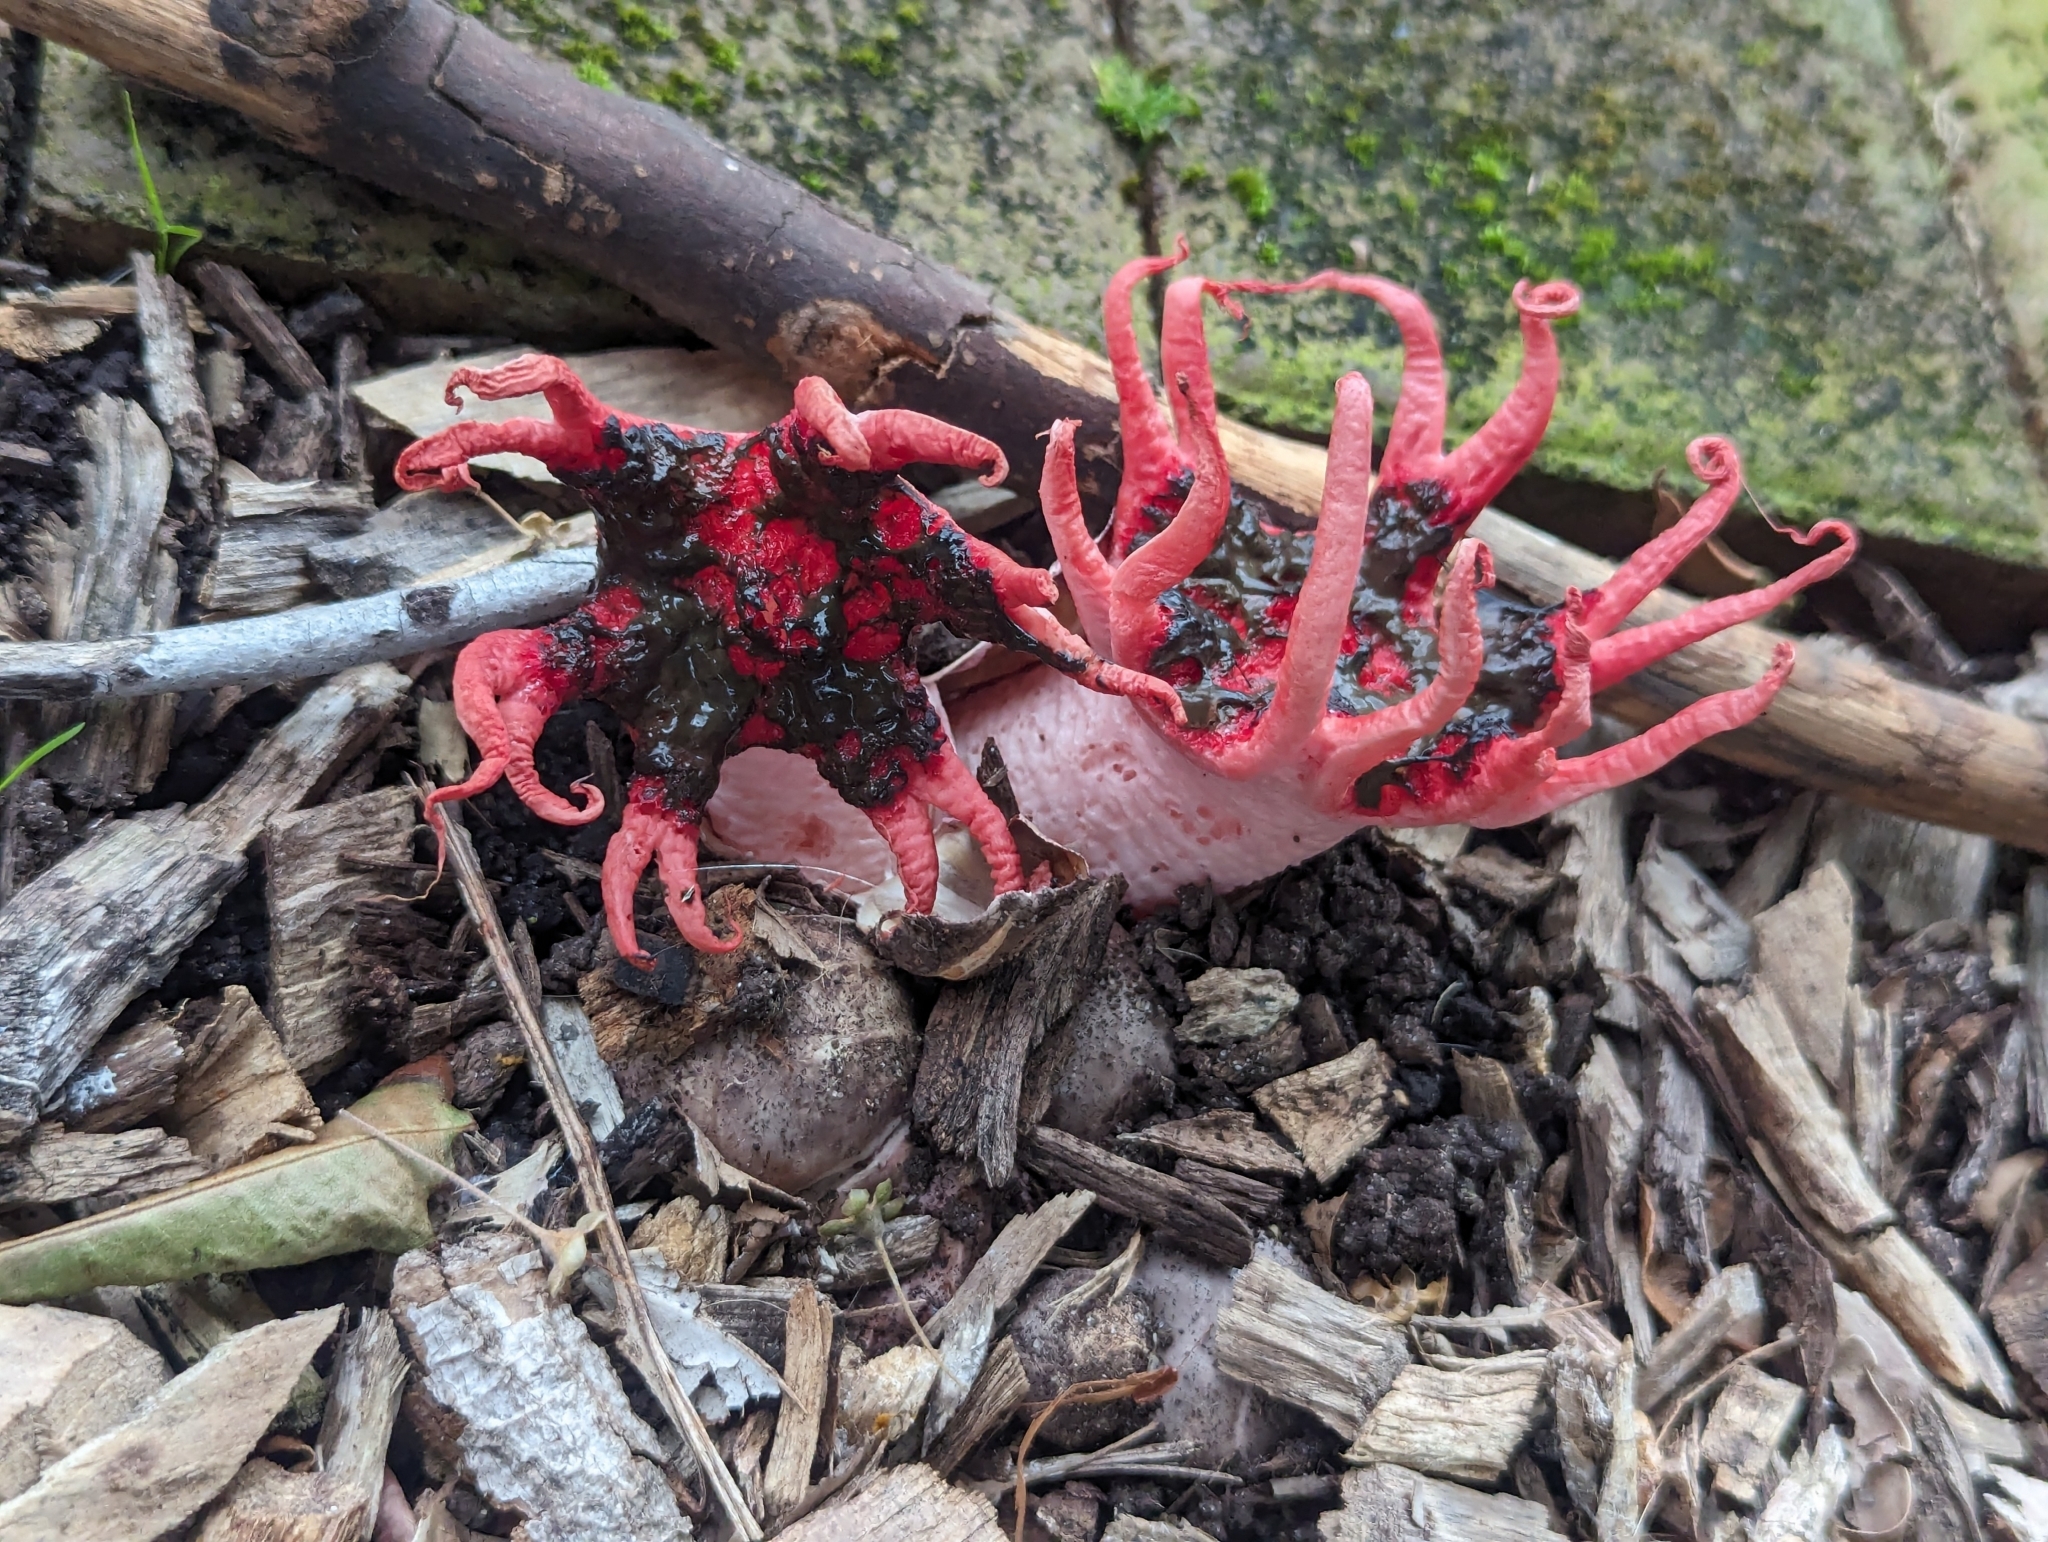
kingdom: Fungi
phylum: Basidiomycota
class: Agaricomycetes
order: Phallales
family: Phallaceae
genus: Aseroe
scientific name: Aseroe rubra
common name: Starfish fungus
